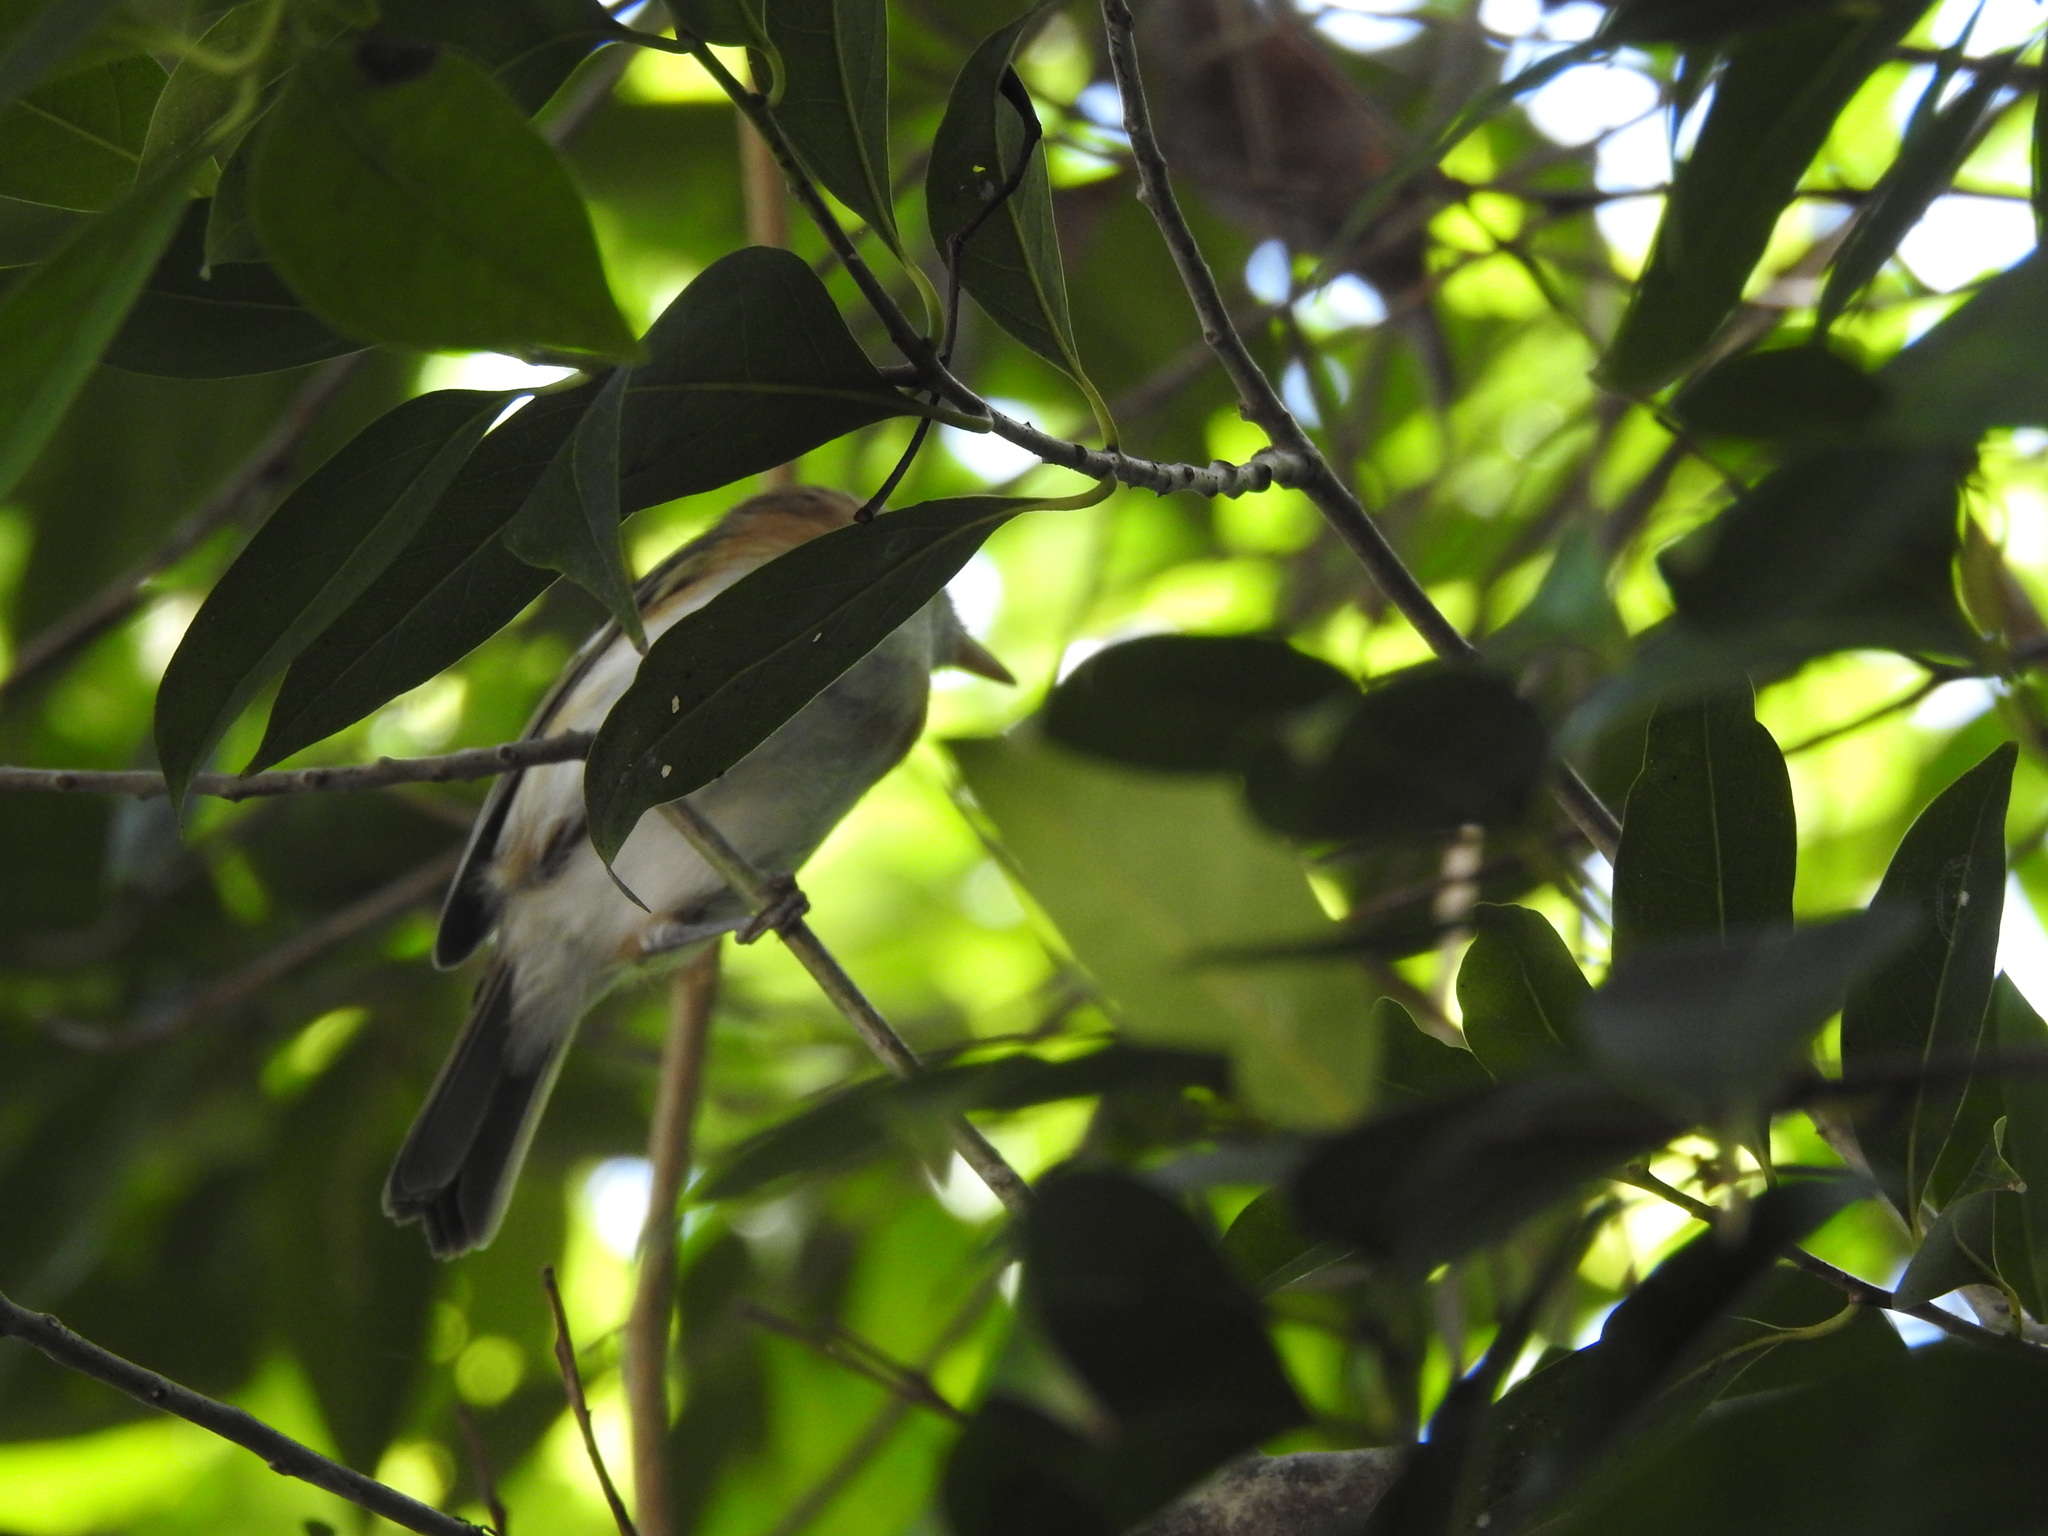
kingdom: Animalia
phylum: Chordata
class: Aves
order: Passeriformes
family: Vireonidae
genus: Vireo
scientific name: Vireo bairdi
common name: Cozumel vireo
